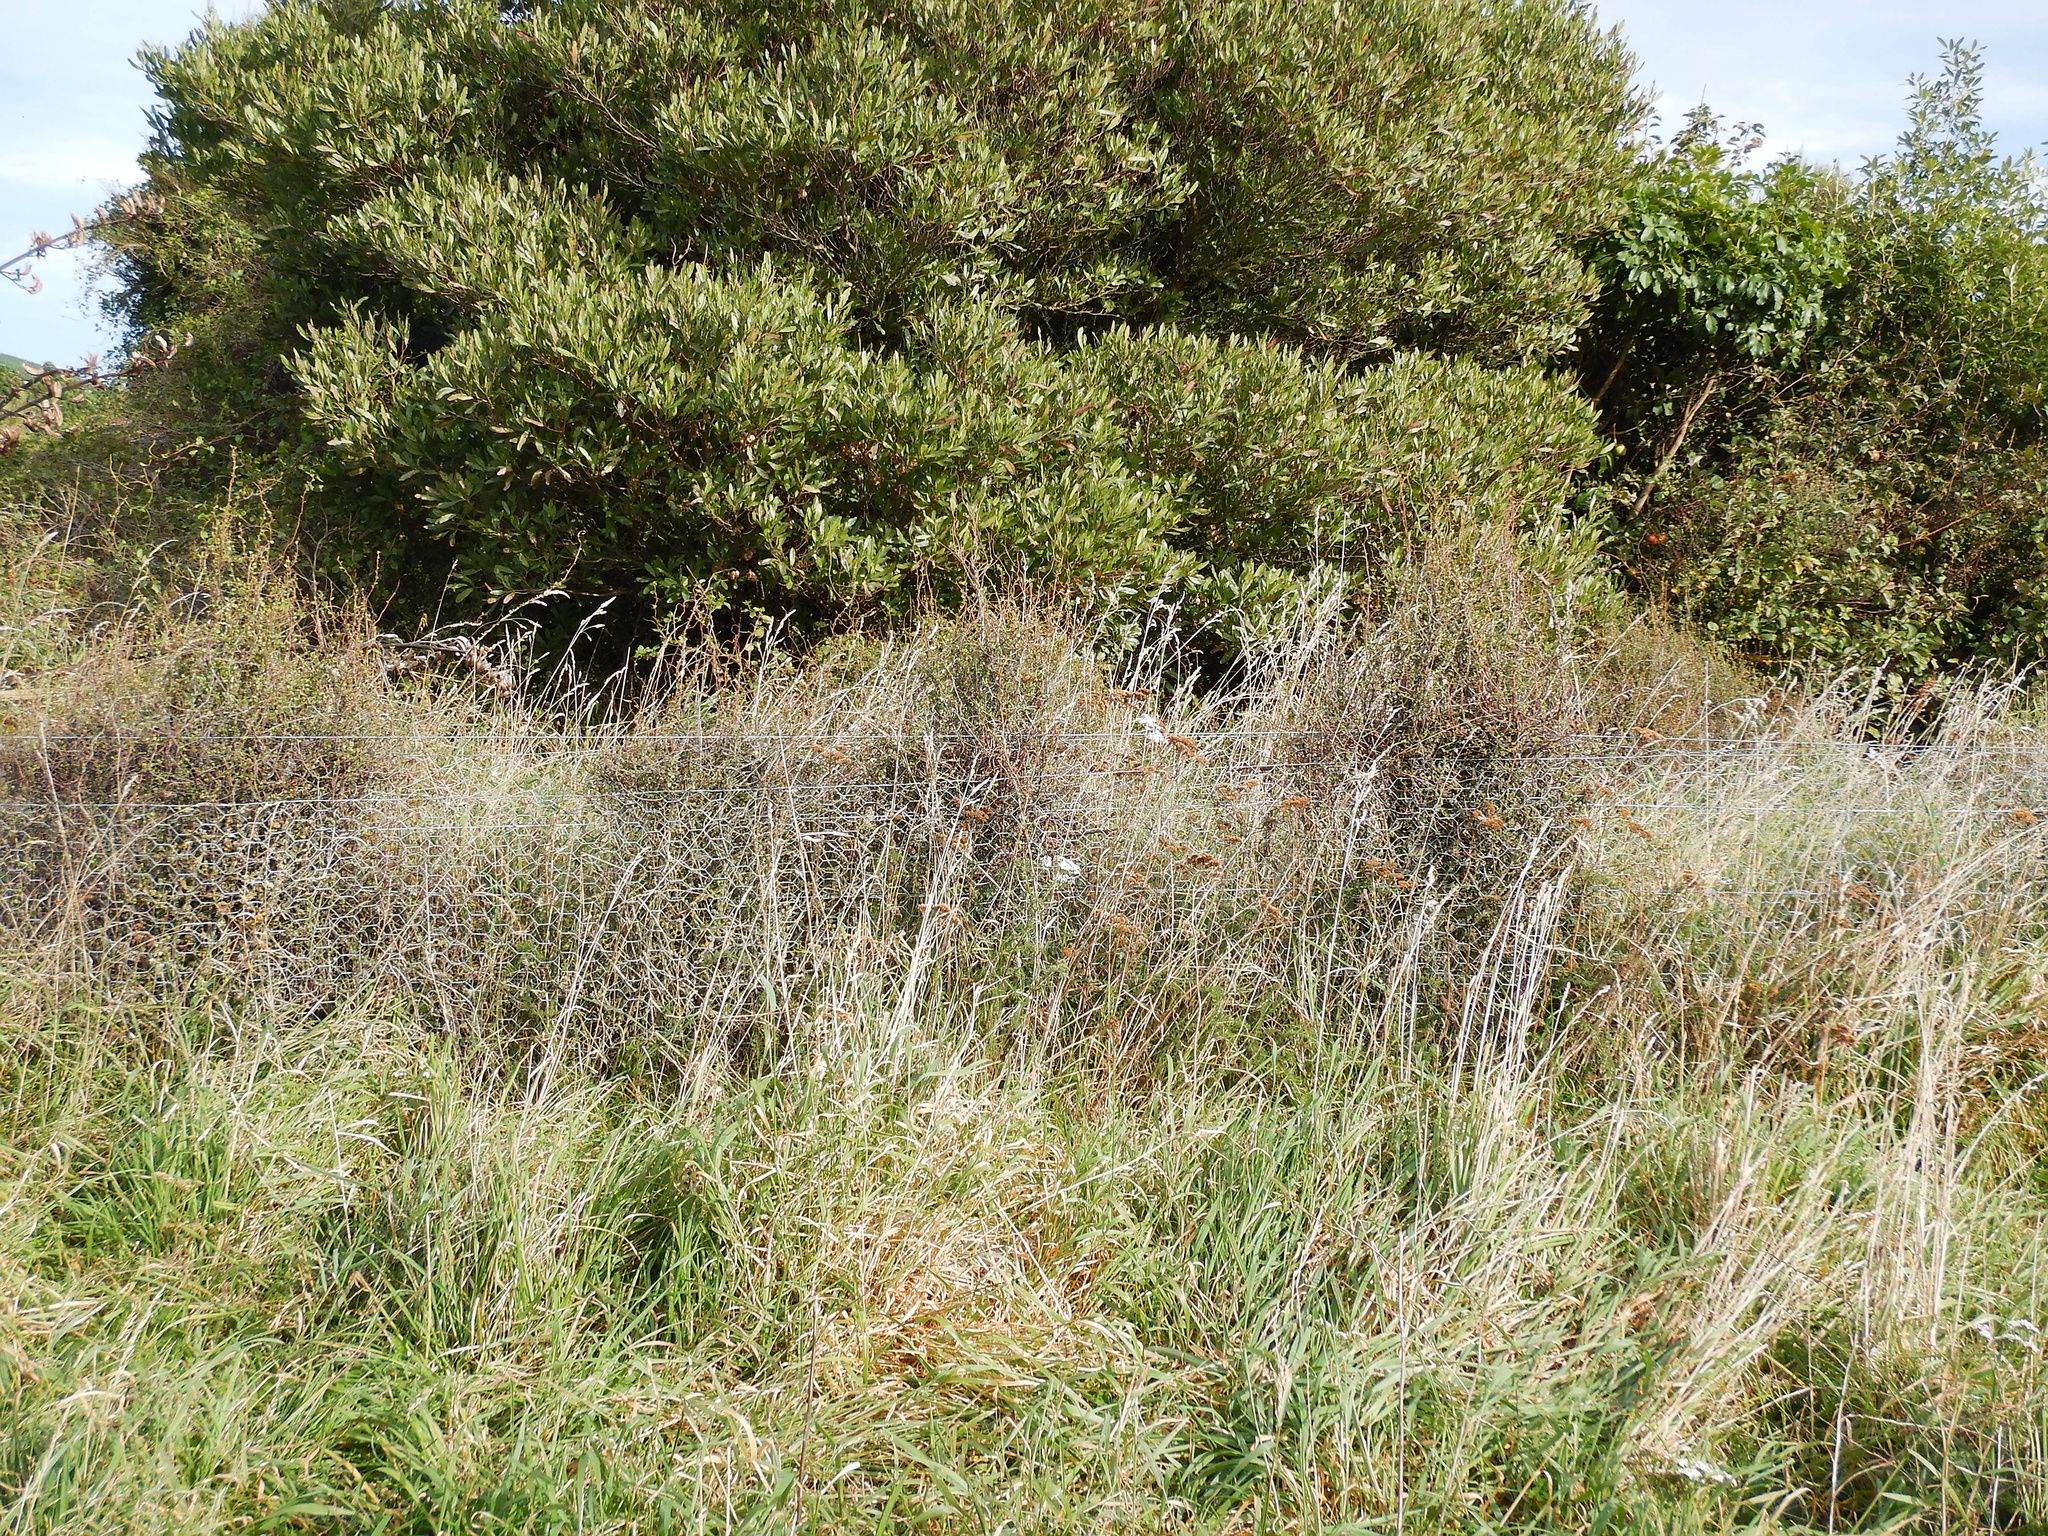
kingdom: Plantae
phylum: Tracheophyta
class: Magnoliopsida
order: Caryophyllales
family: Polygonaceae
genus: Muehlenbeckia
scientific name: Muehlenbeckia complexa
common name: Wireplant
